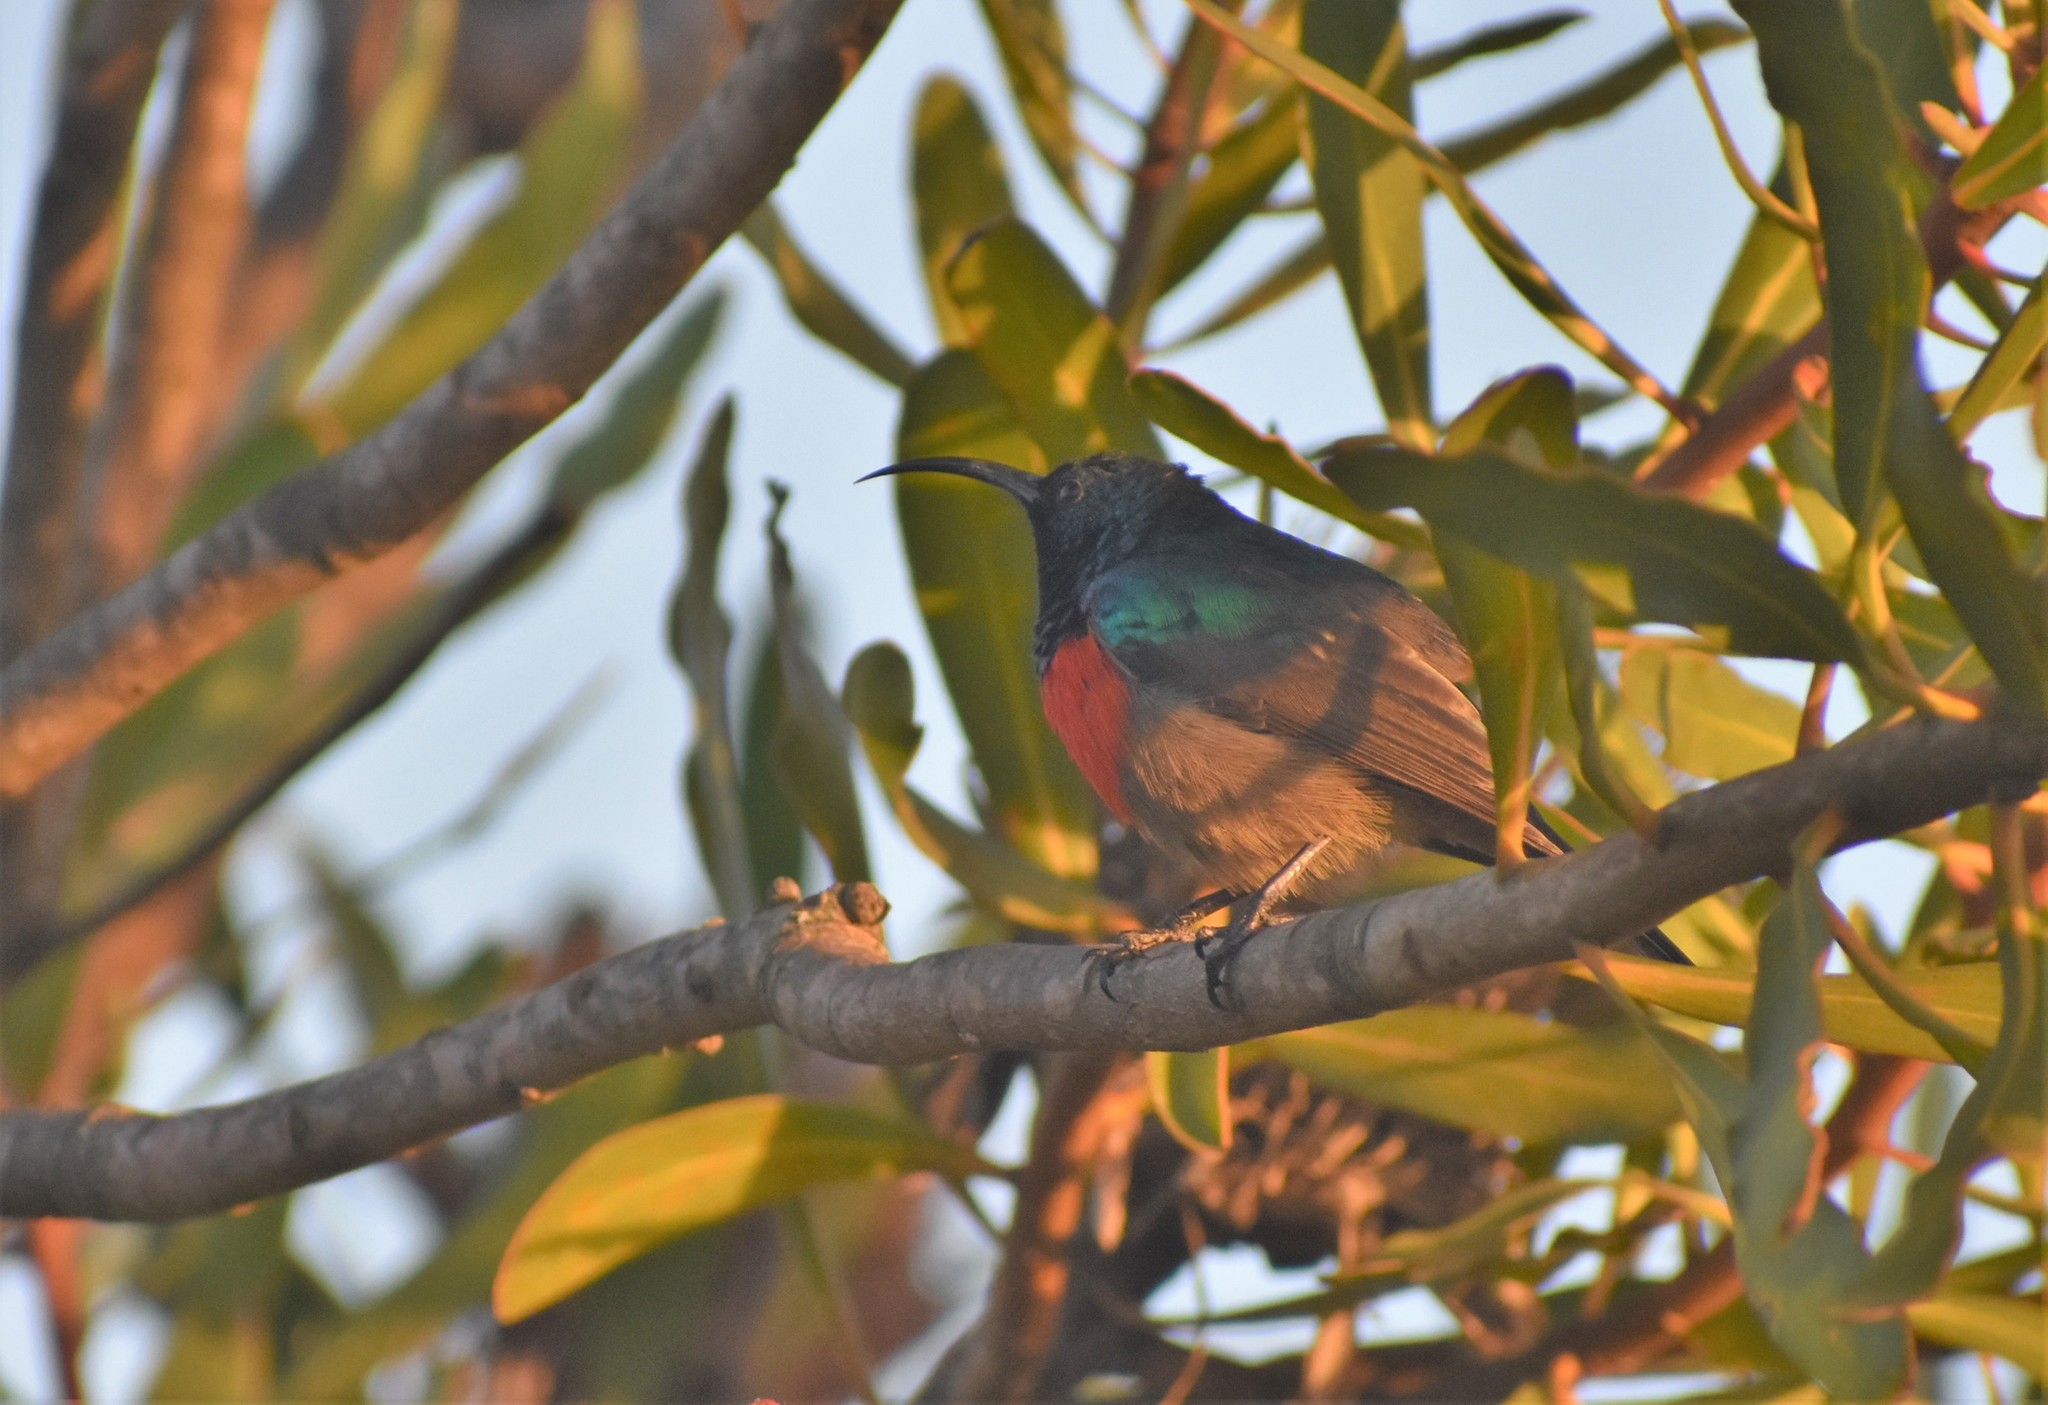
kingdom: Animalia
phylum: Chordata
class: Aves
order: Passeriformes
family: Nectariniidae
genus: Cinnyris
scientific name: Cinnyris afer
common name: Greater double-collared sunbird
